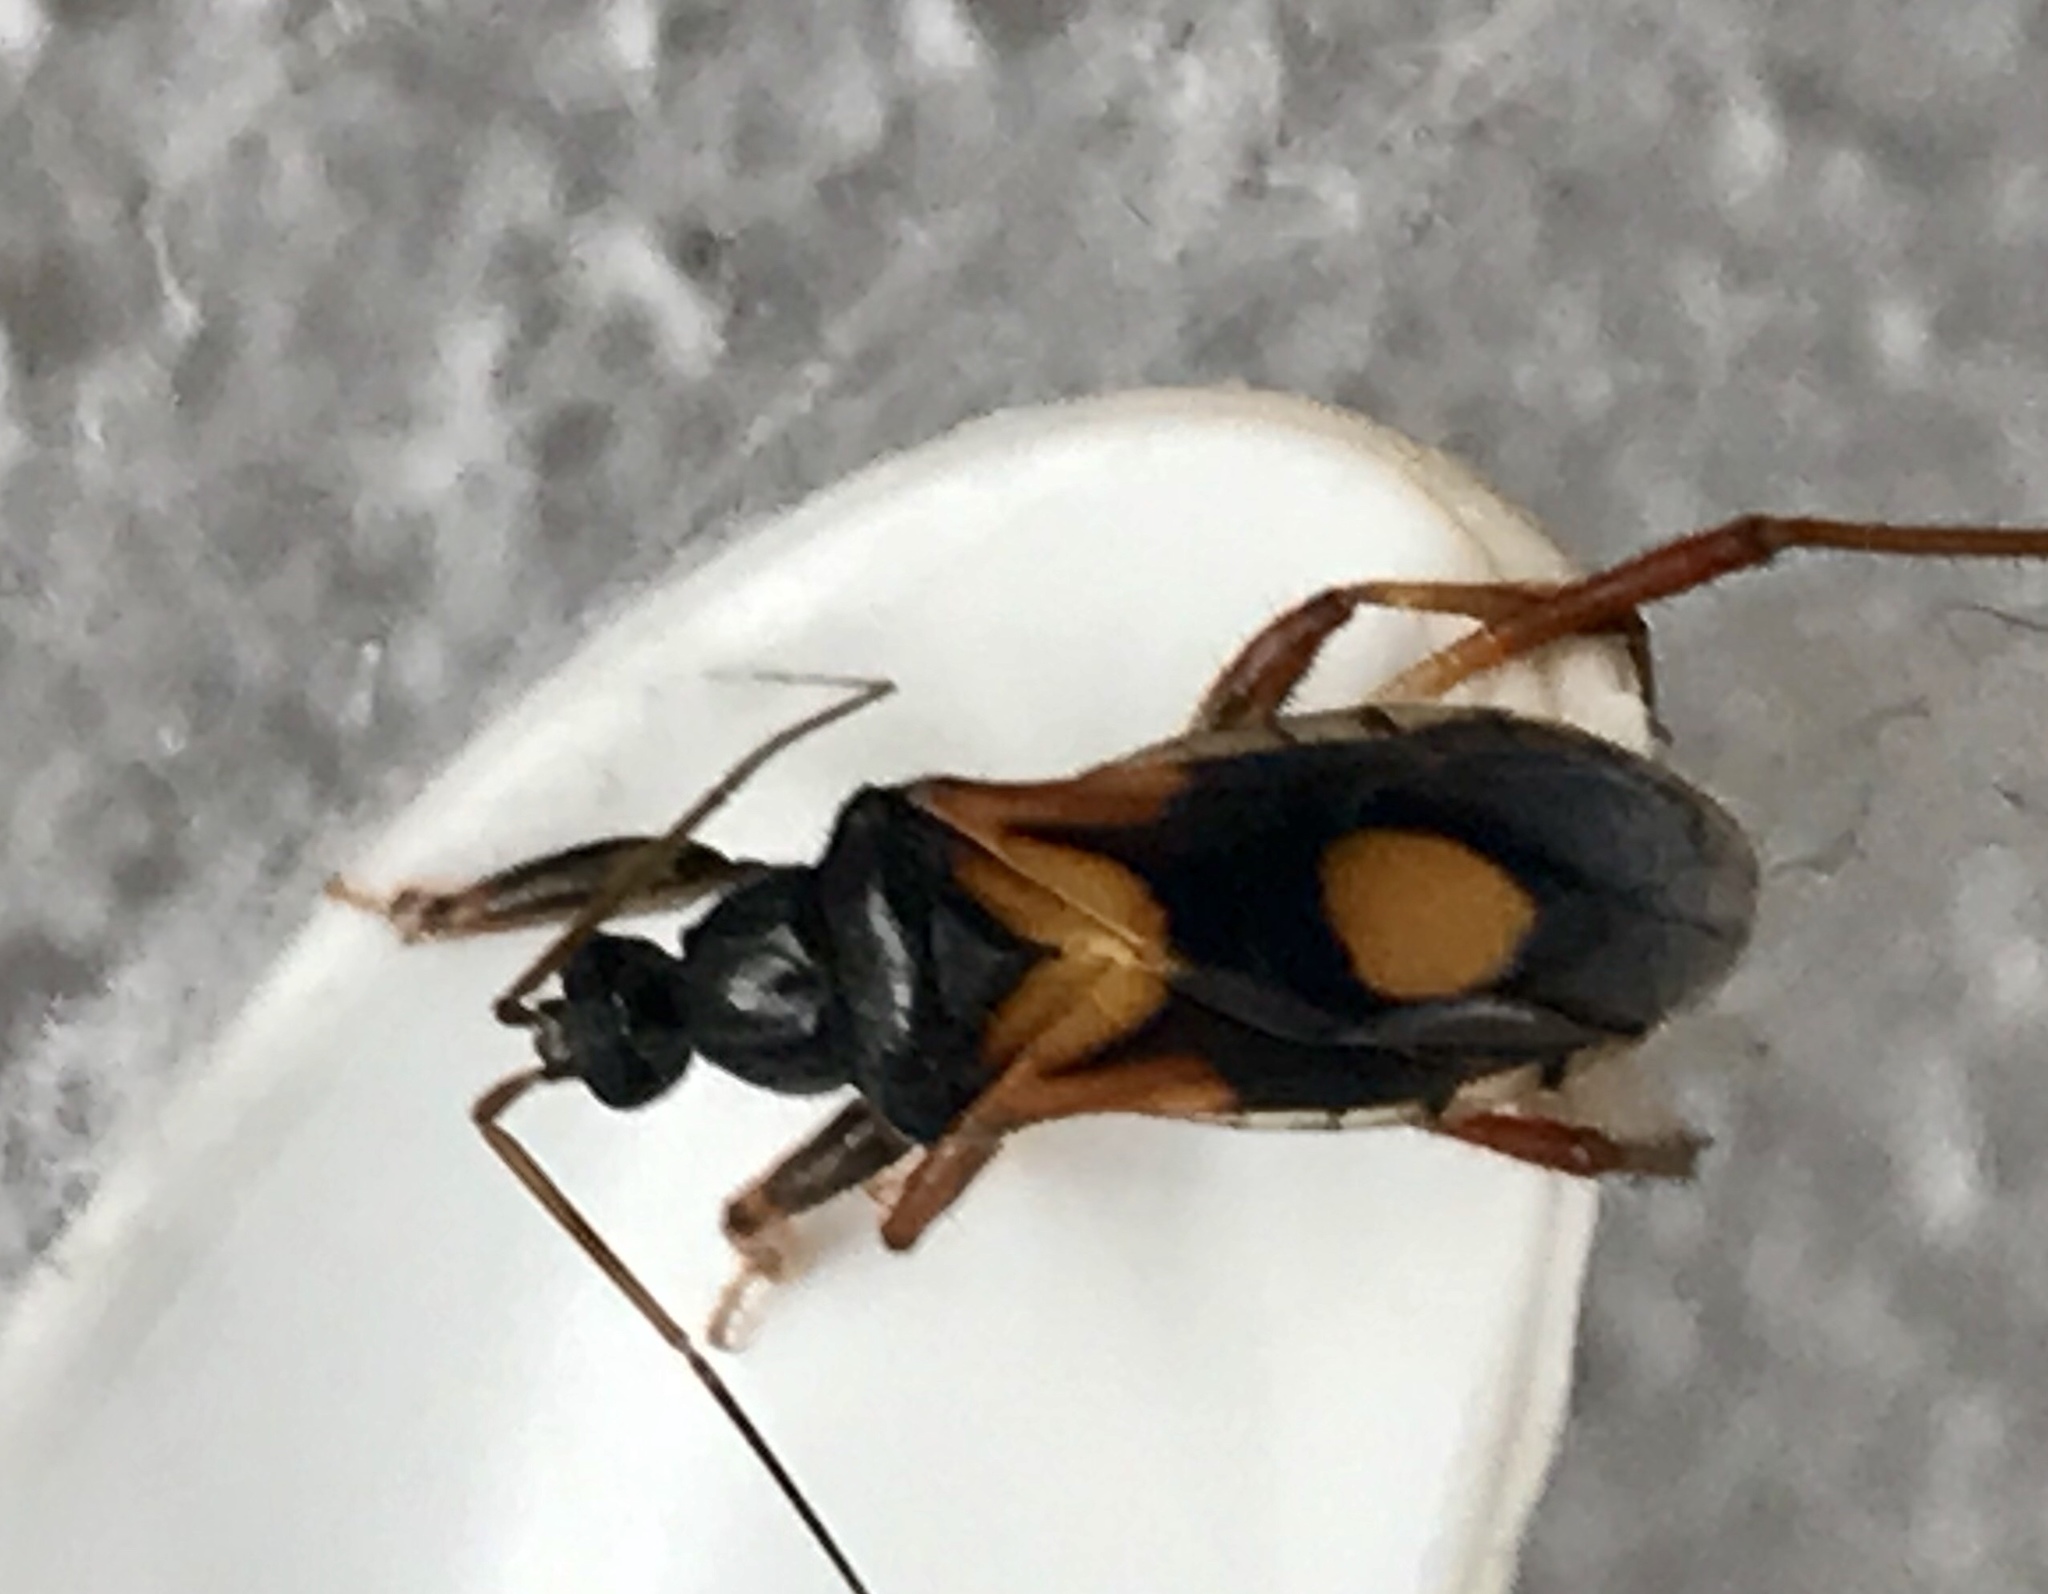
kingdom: Animalia
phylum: Arthropoda
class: Insecta
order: Hemiptera
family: Reduviidae
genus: Rasahus
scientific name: Rasahus hamatus
